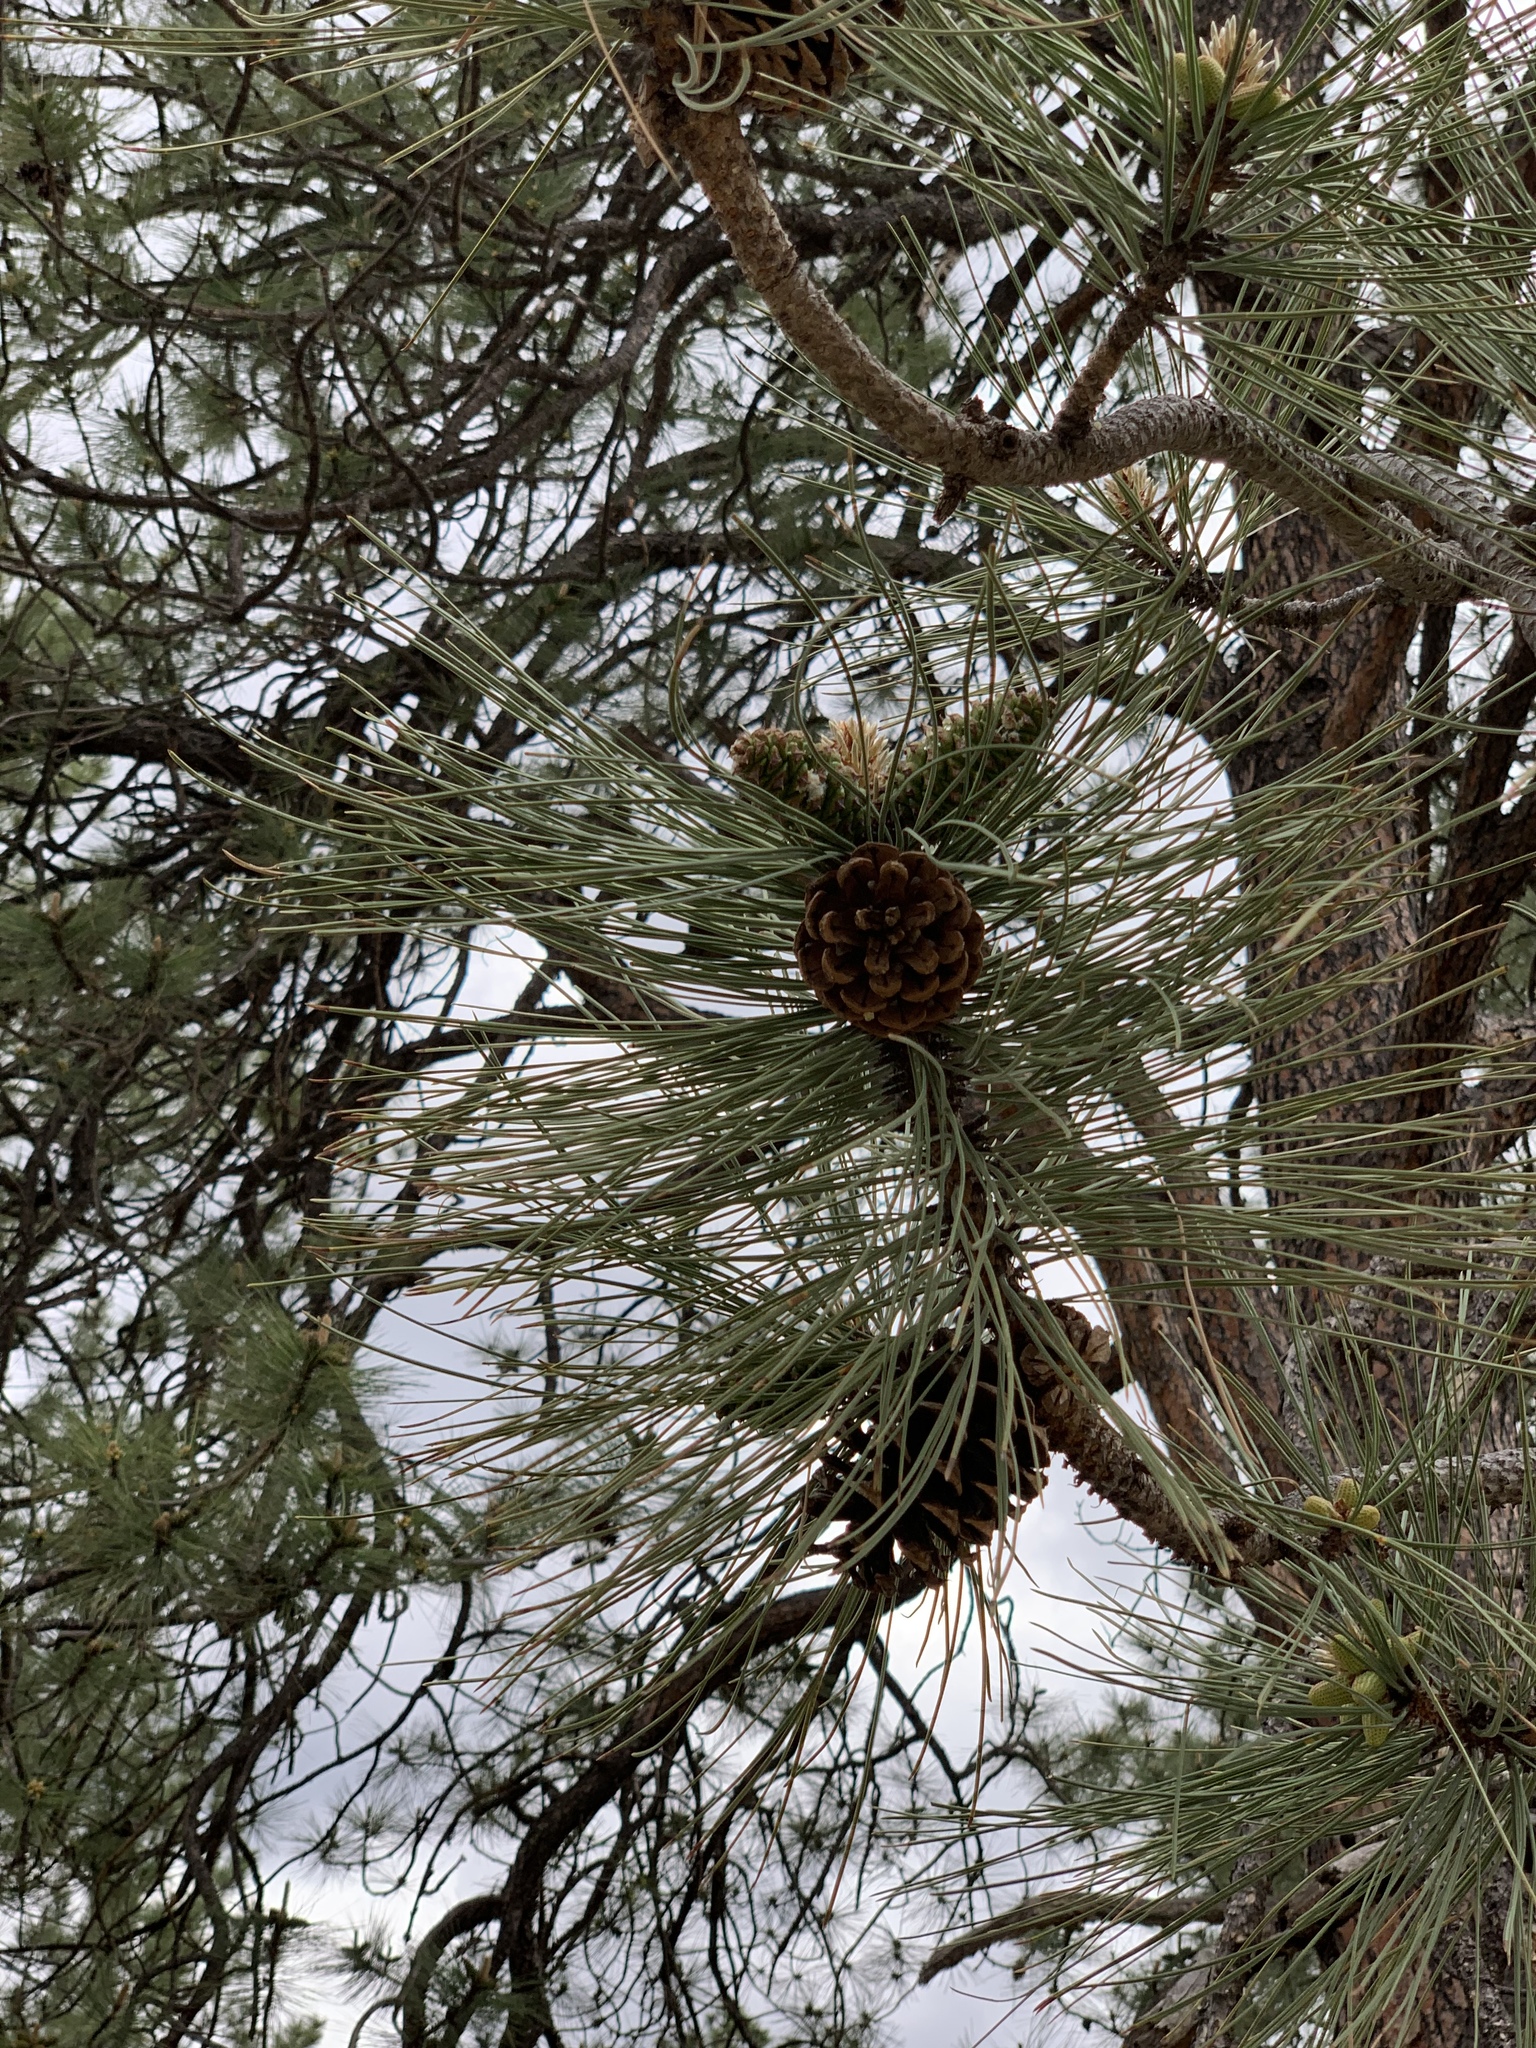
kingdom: Plantae
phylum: Tracheophyta
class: Pinopsida
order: Pinales
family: Pinaceae
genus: Pinus
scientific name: Pinus ponderosa
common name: Western yellow-pine
